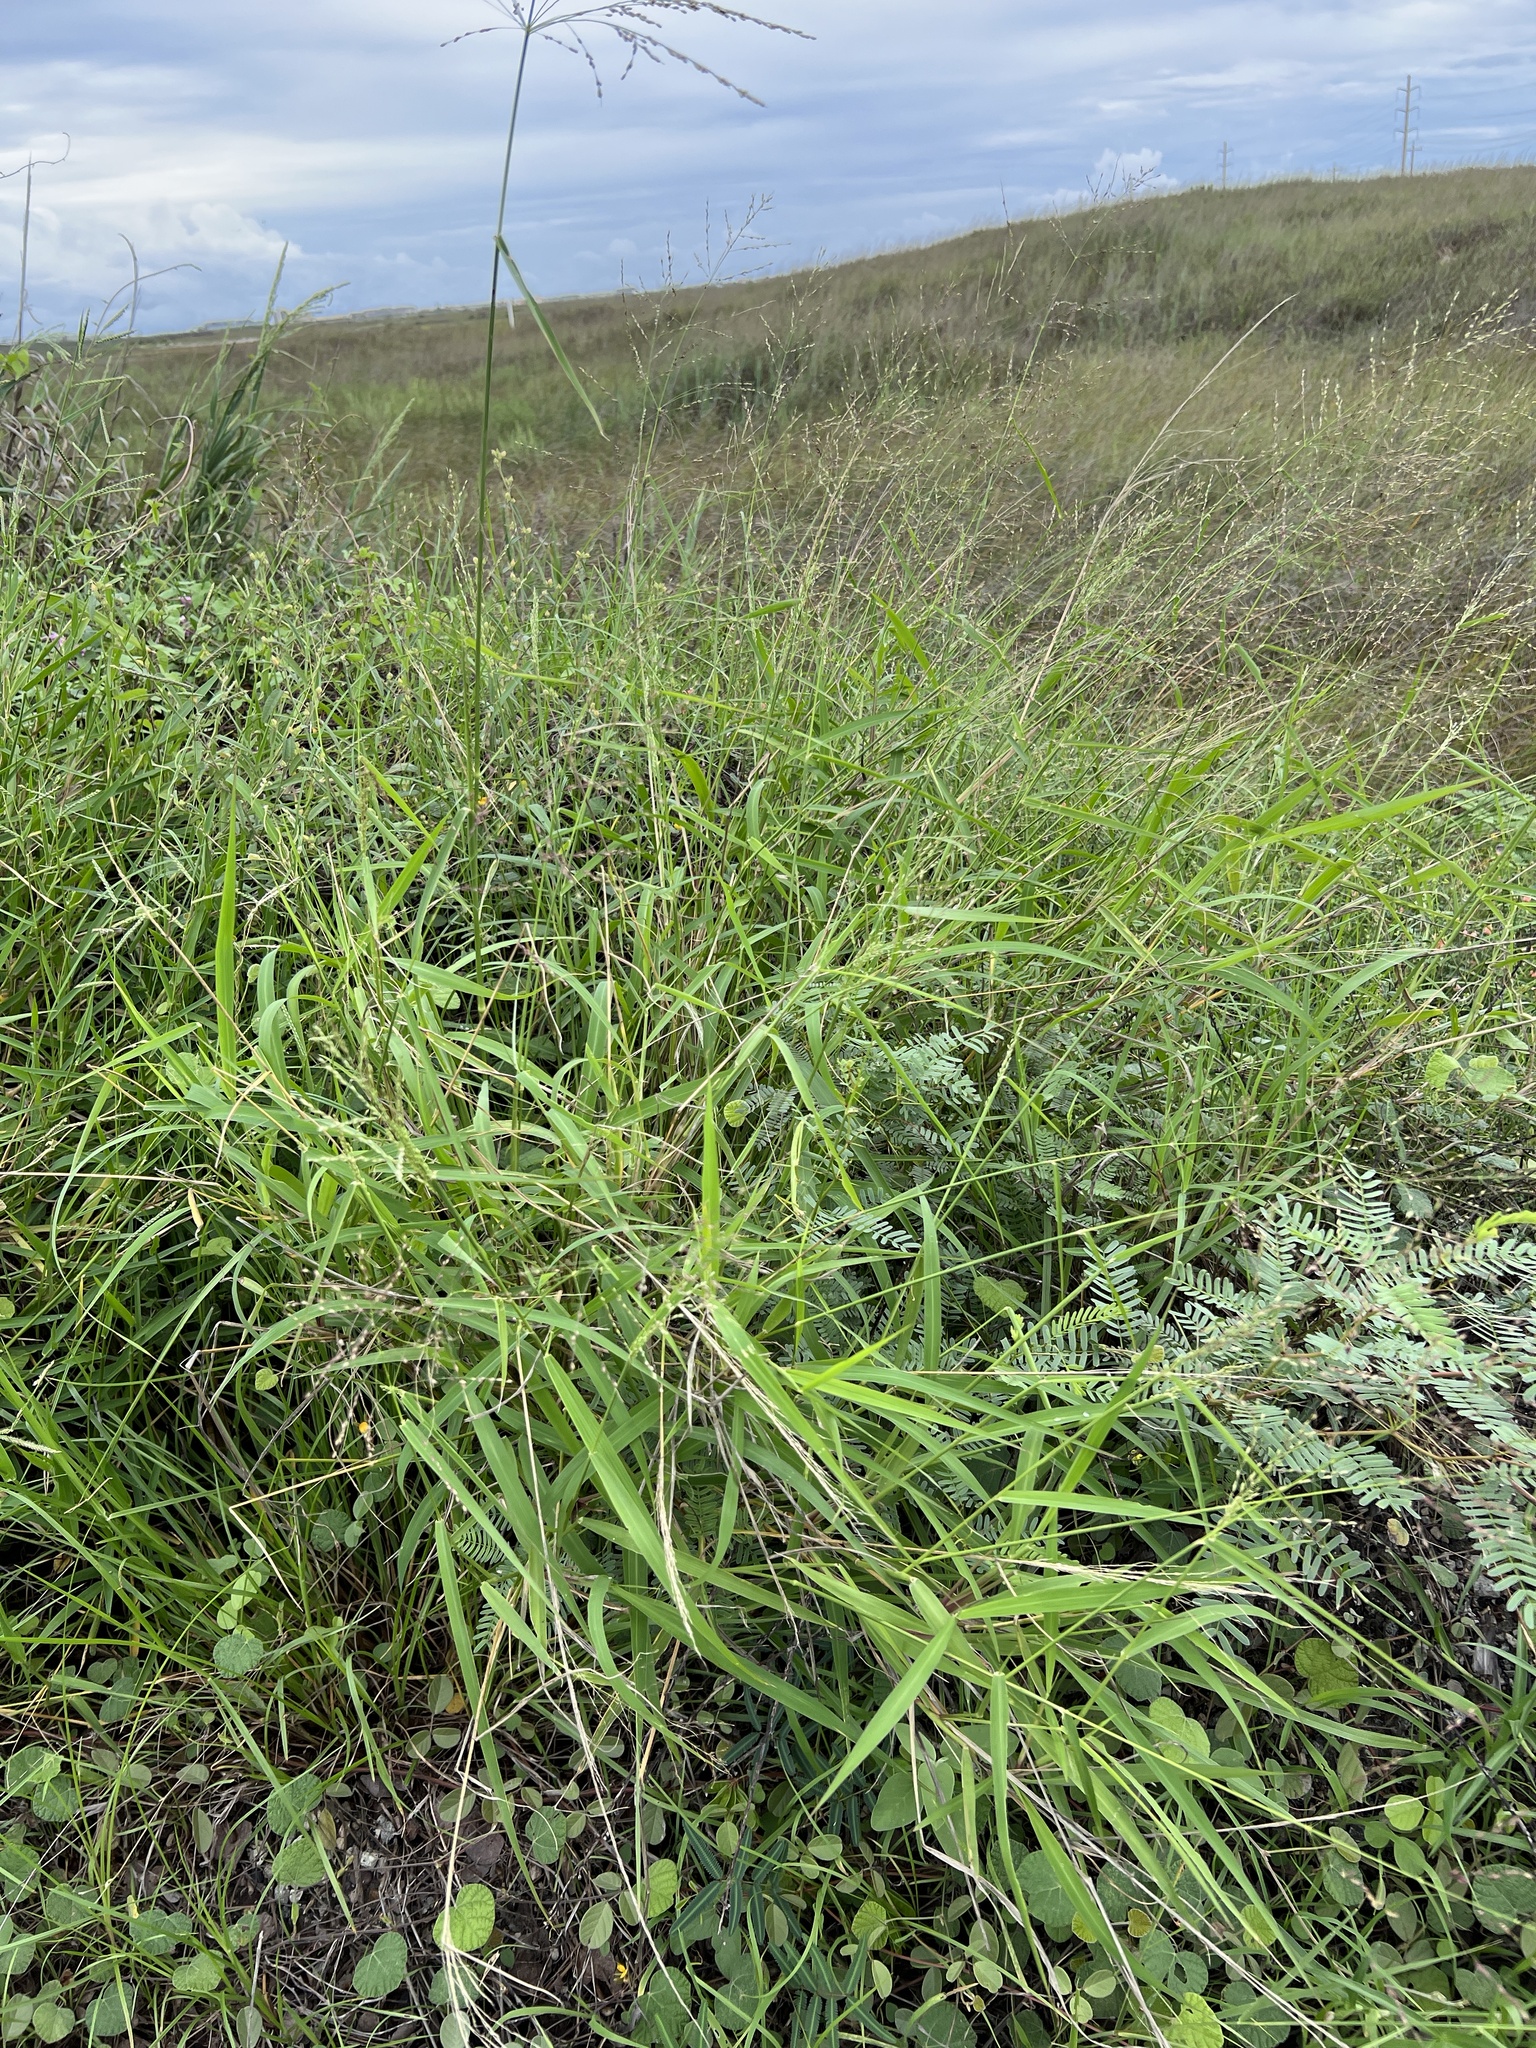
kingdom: Plantae
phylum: Tracheophyta
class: Liliopsida
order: Poales
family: Poaceae
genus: Megathyrsus
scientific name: Megathyrsus maximus
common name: Guineagrass
